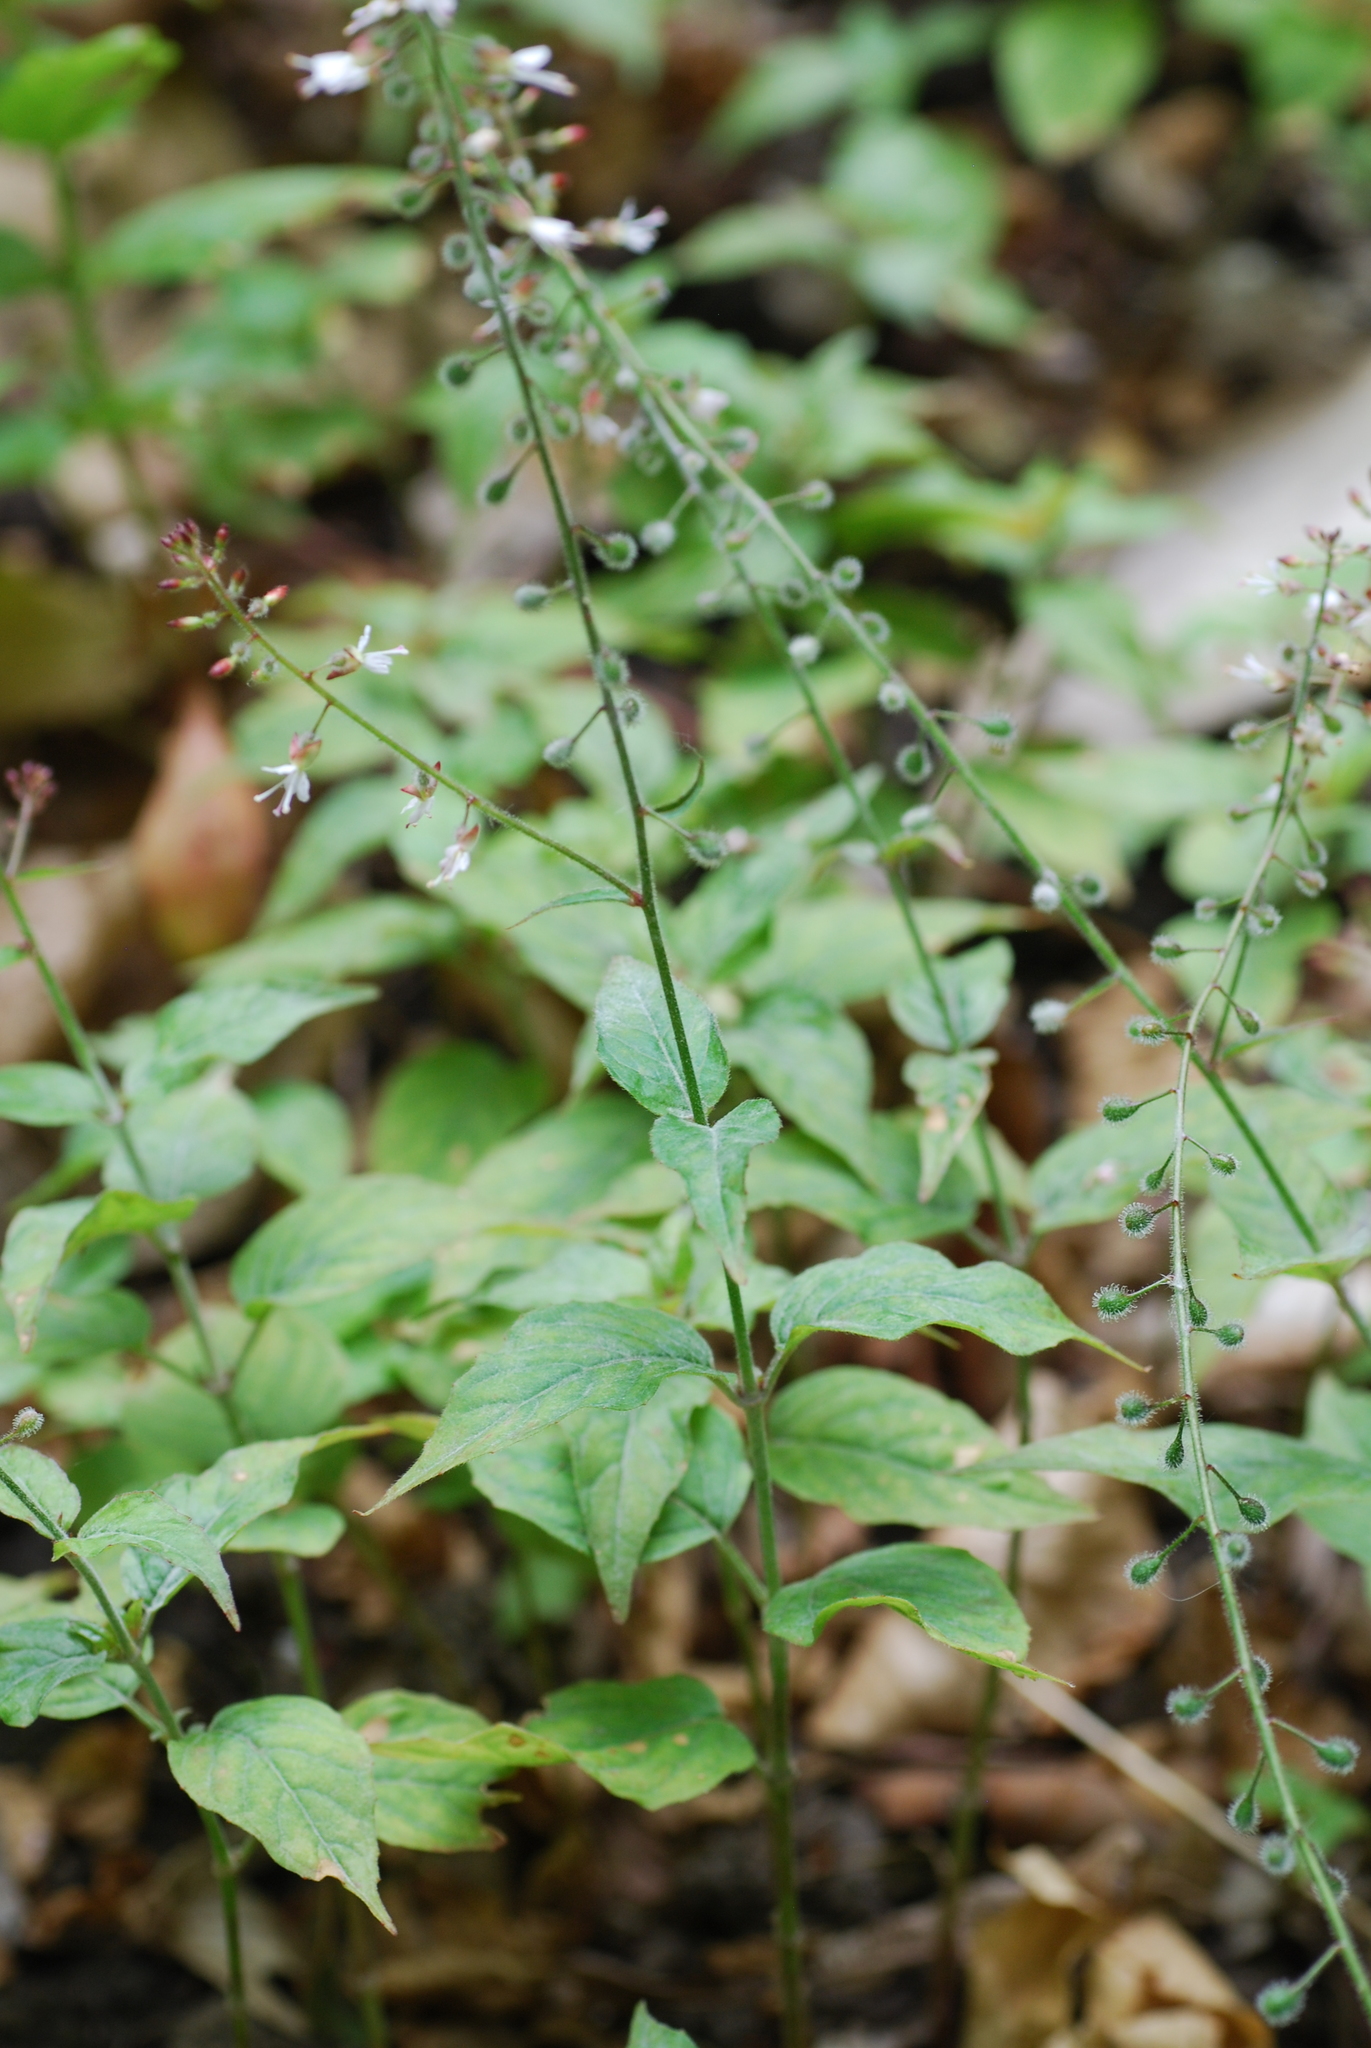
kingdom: Plantae
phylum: Tracheophyta
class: Magnoliopsida
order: Myrtales
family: Onagraceae
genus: Circaea
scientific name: Circaea lutetiana
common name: Enchanter's-nightshade
